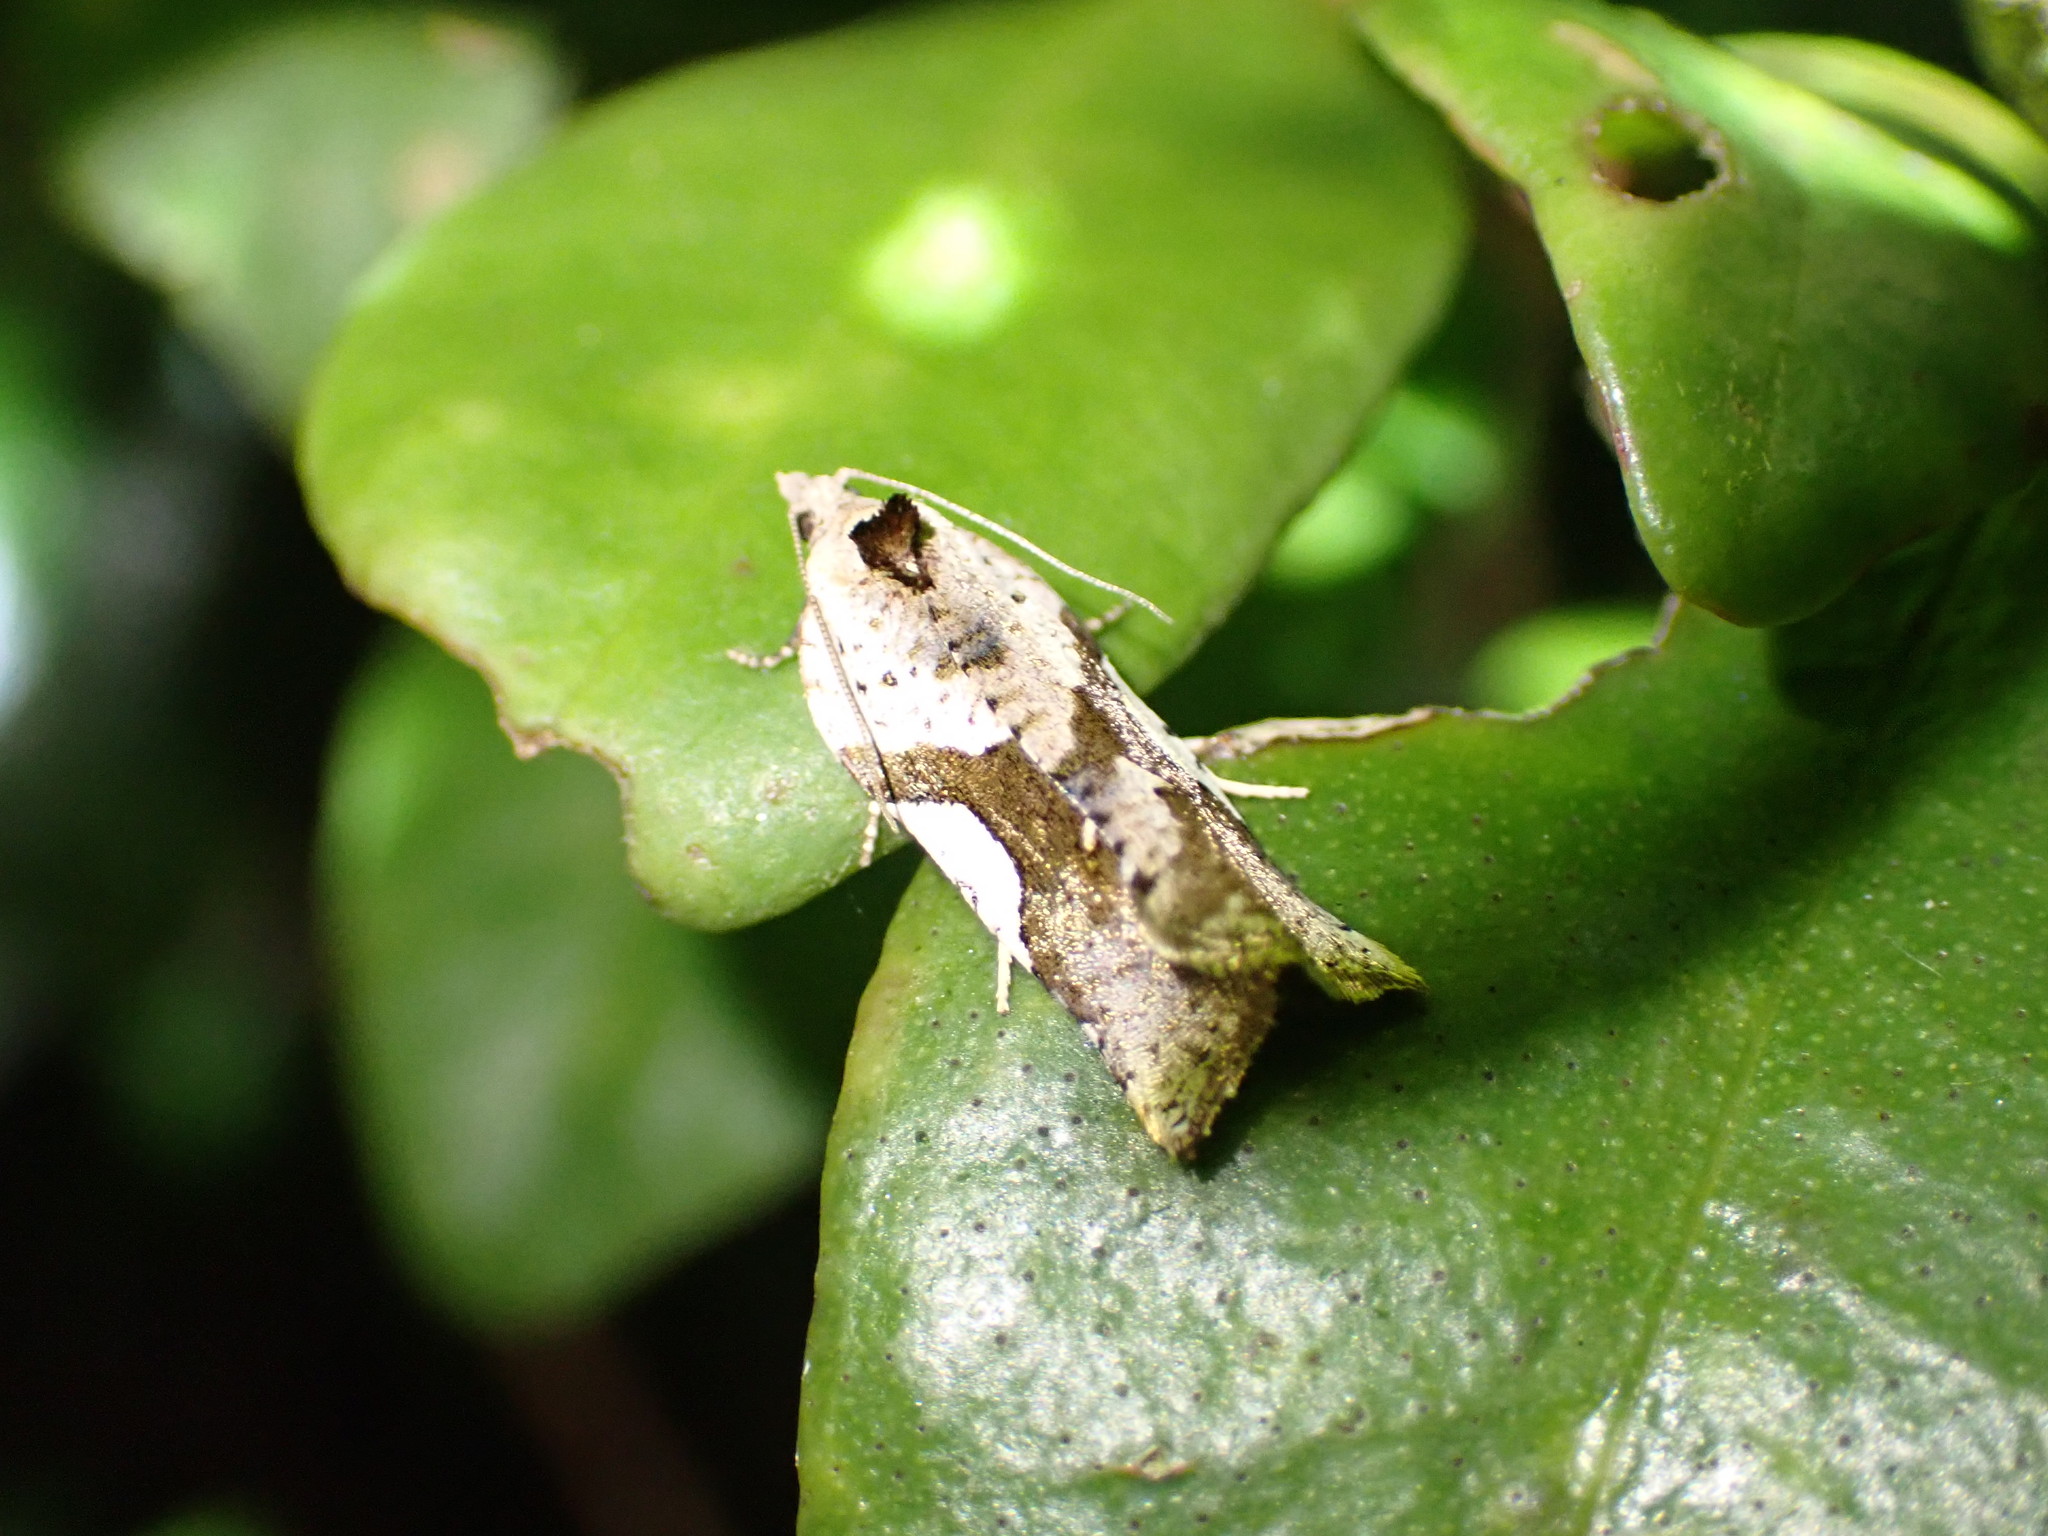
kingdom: Animalia
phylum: Arthropoda
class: Insecta
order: Lepidoptera
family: Tortricidae
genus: Pyrgotis
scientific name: Pyrgotis plagiatana
